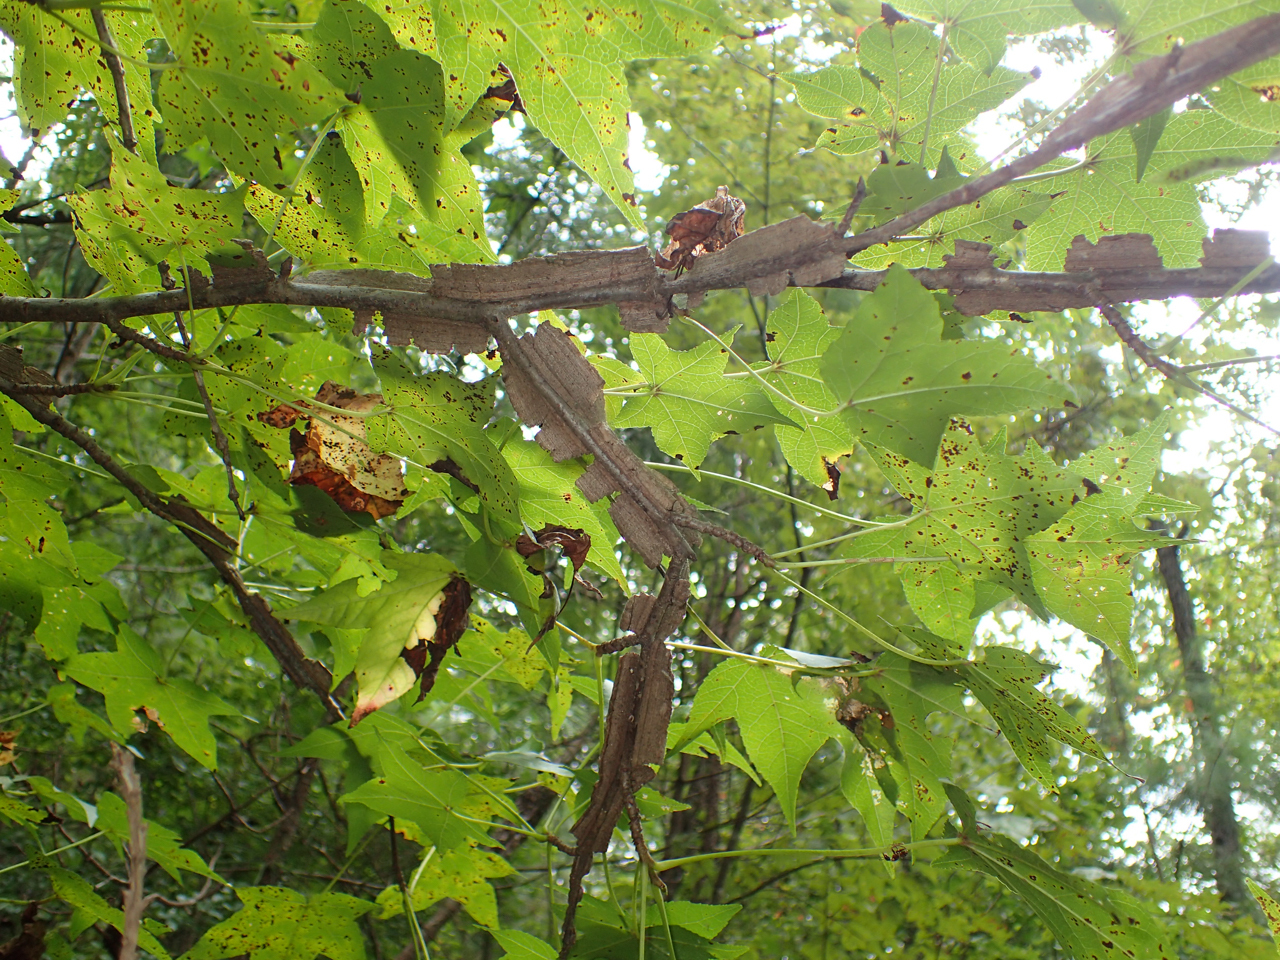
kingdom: Plantae
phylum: Tracheophyta
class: Magnoliopsida
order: Saxifragales
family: Altingiaceae
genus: Liquidambar
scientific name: Liquidambar styraciflua
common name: Sweet gum
